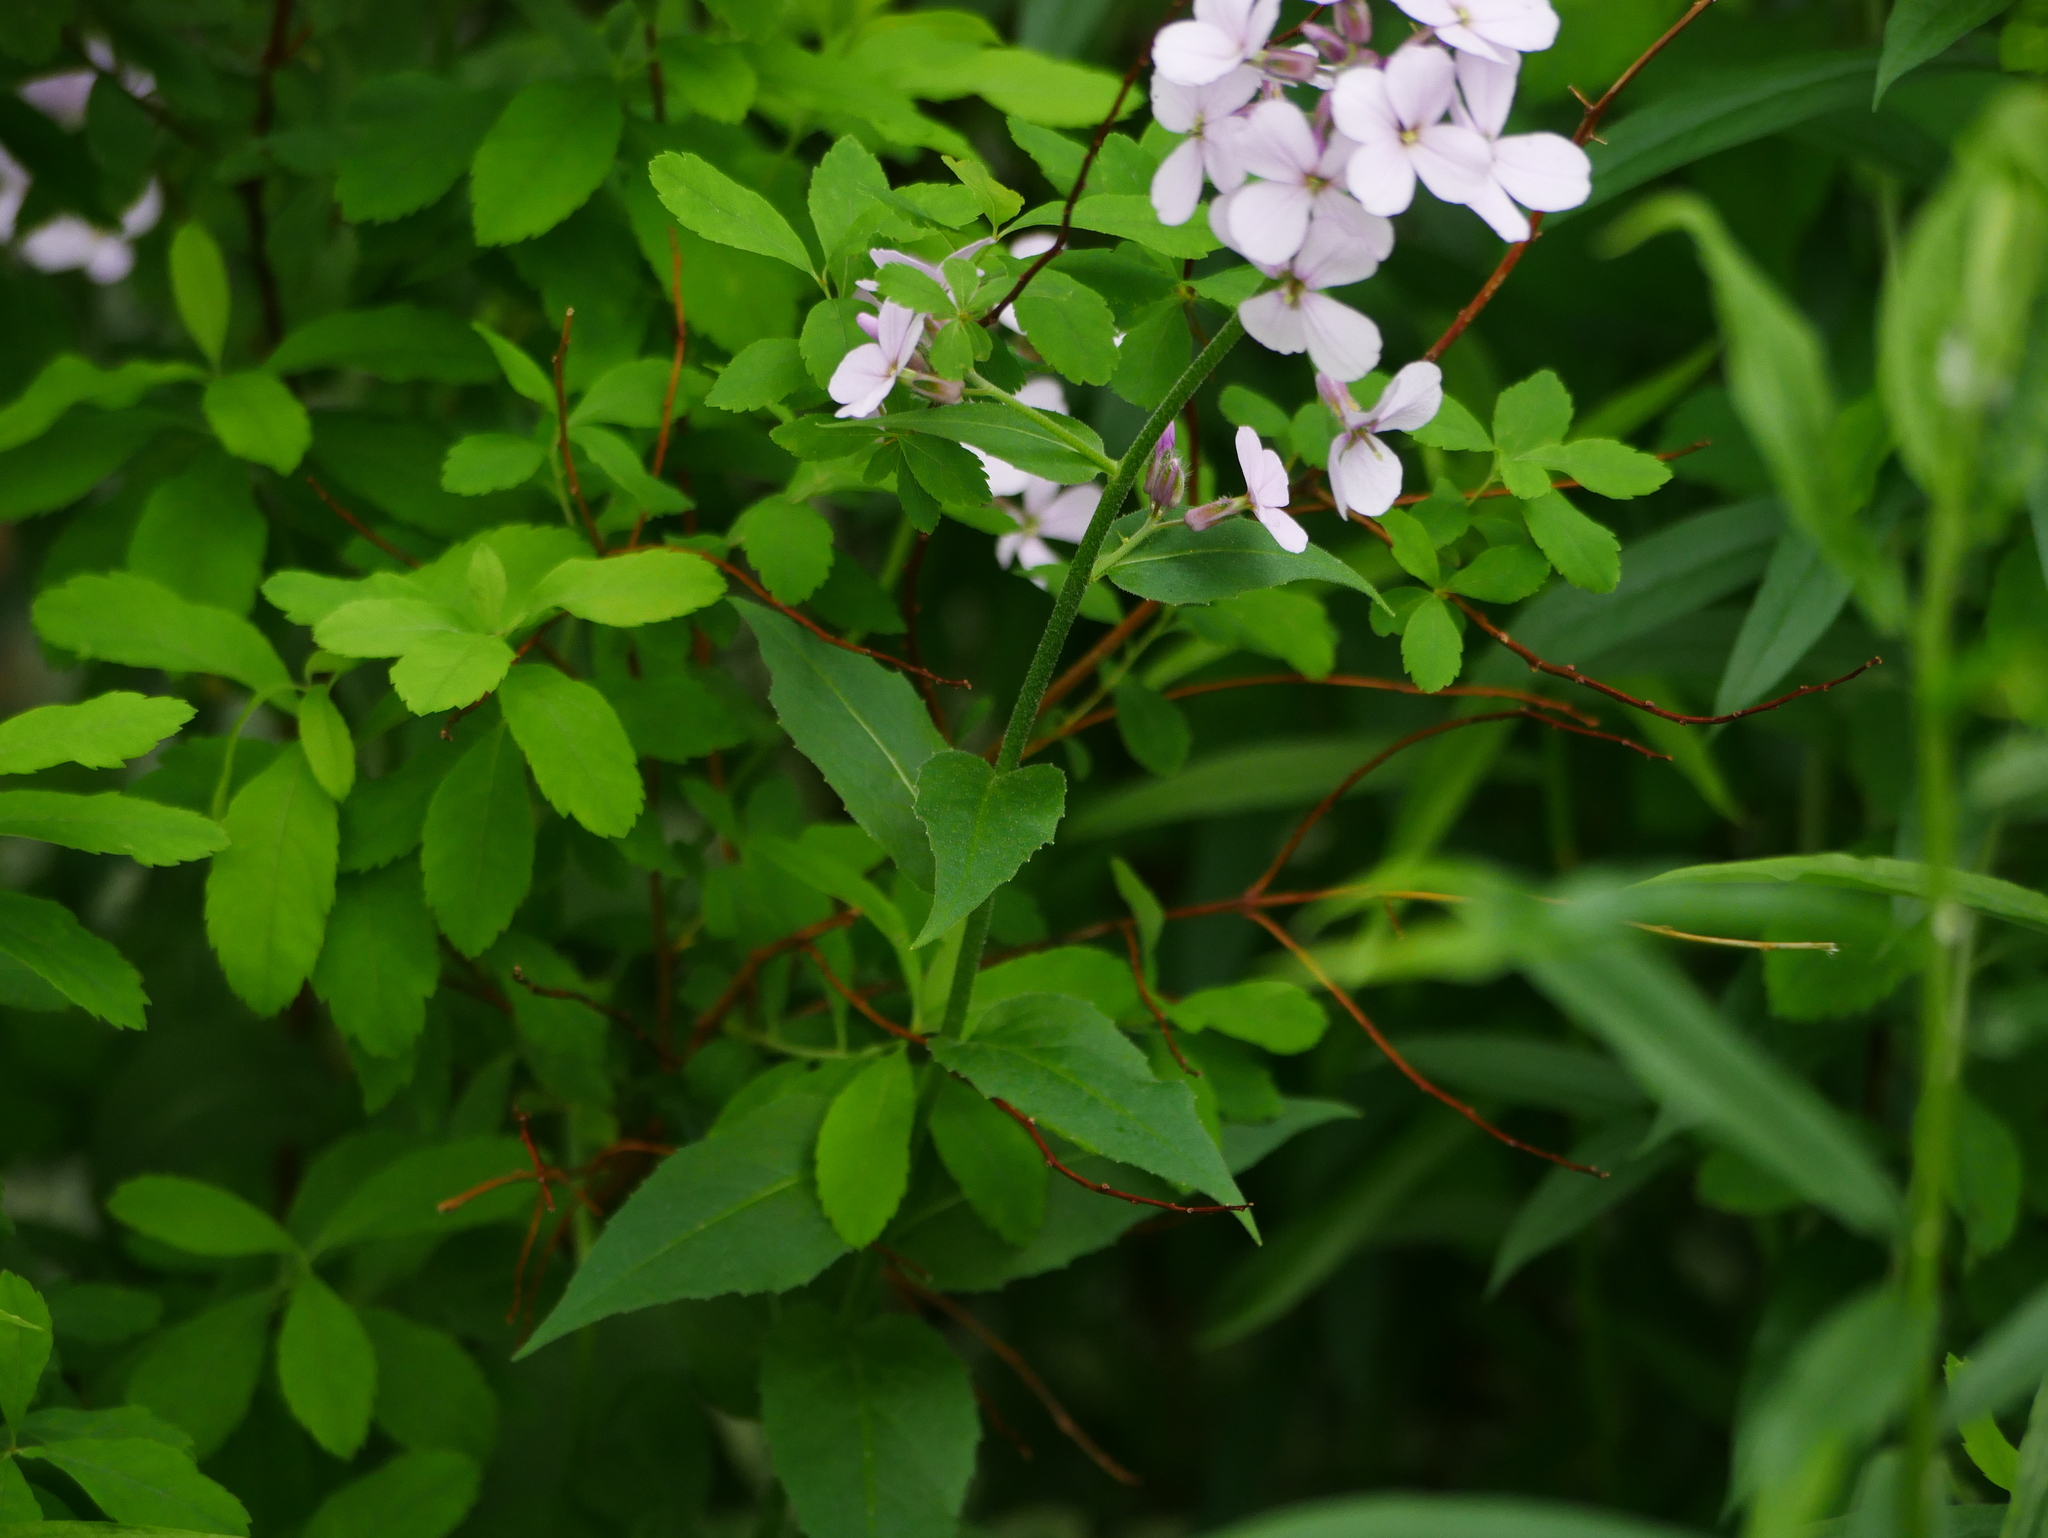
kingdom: Plantae
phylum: Tracheophyta
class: Magnoliopsida
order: Brassicales
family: Brassicaceae
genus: Hesperis
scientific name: Hesperis matronalis
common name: Dame's-violet
